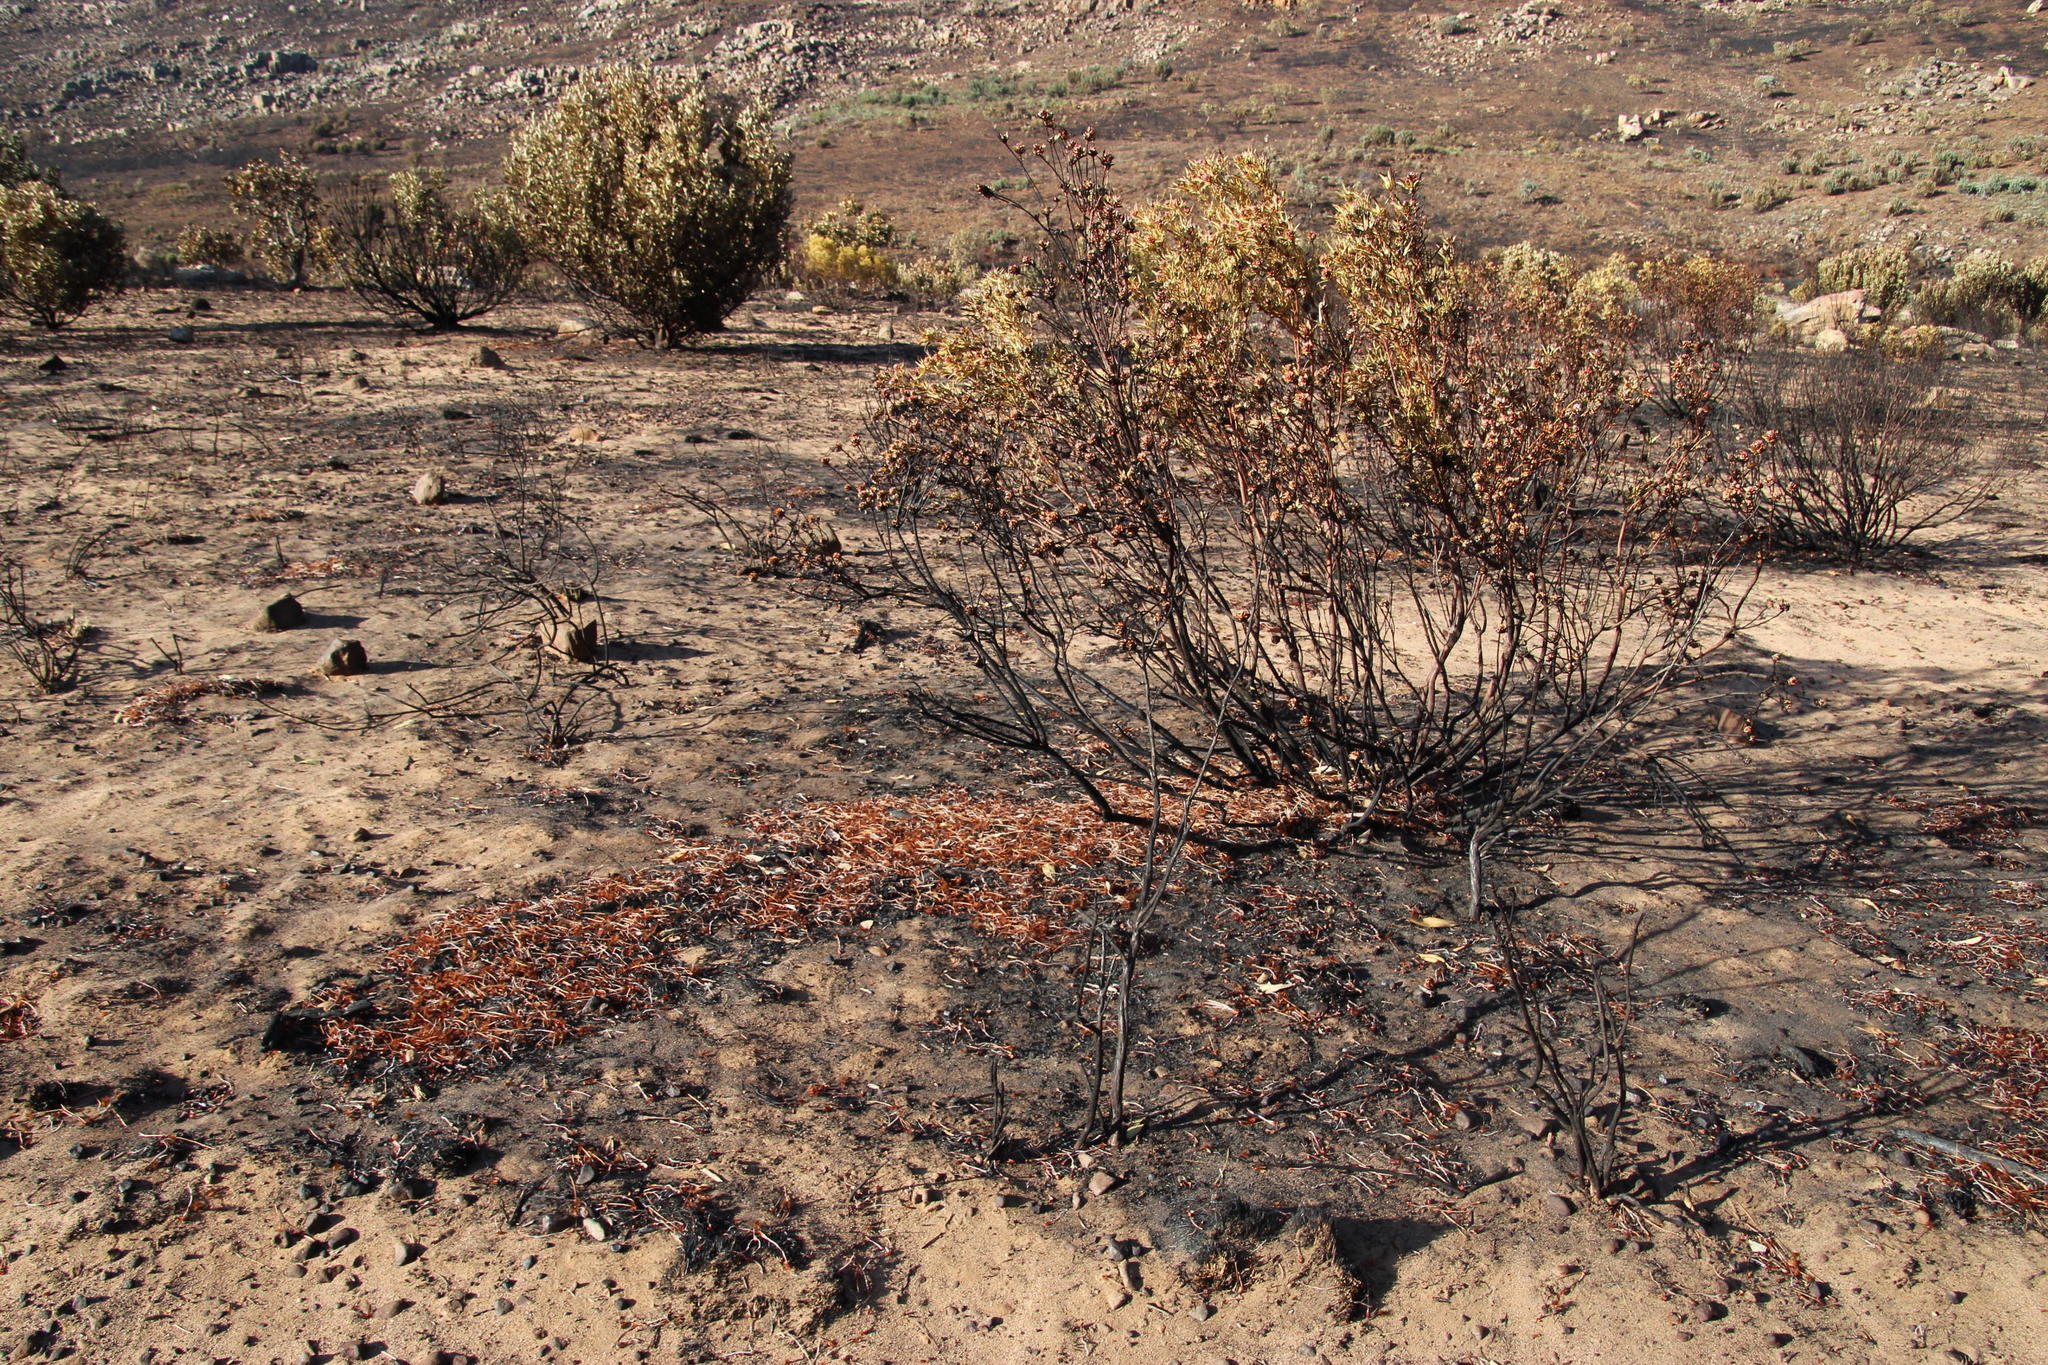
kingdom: Plantae
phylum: Tracheophyta
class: Magnoliopsida
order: Proteales
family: Proteaceae
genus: Protea
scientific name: Protea laurifolia
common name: Grey-leaf sugarbsh
